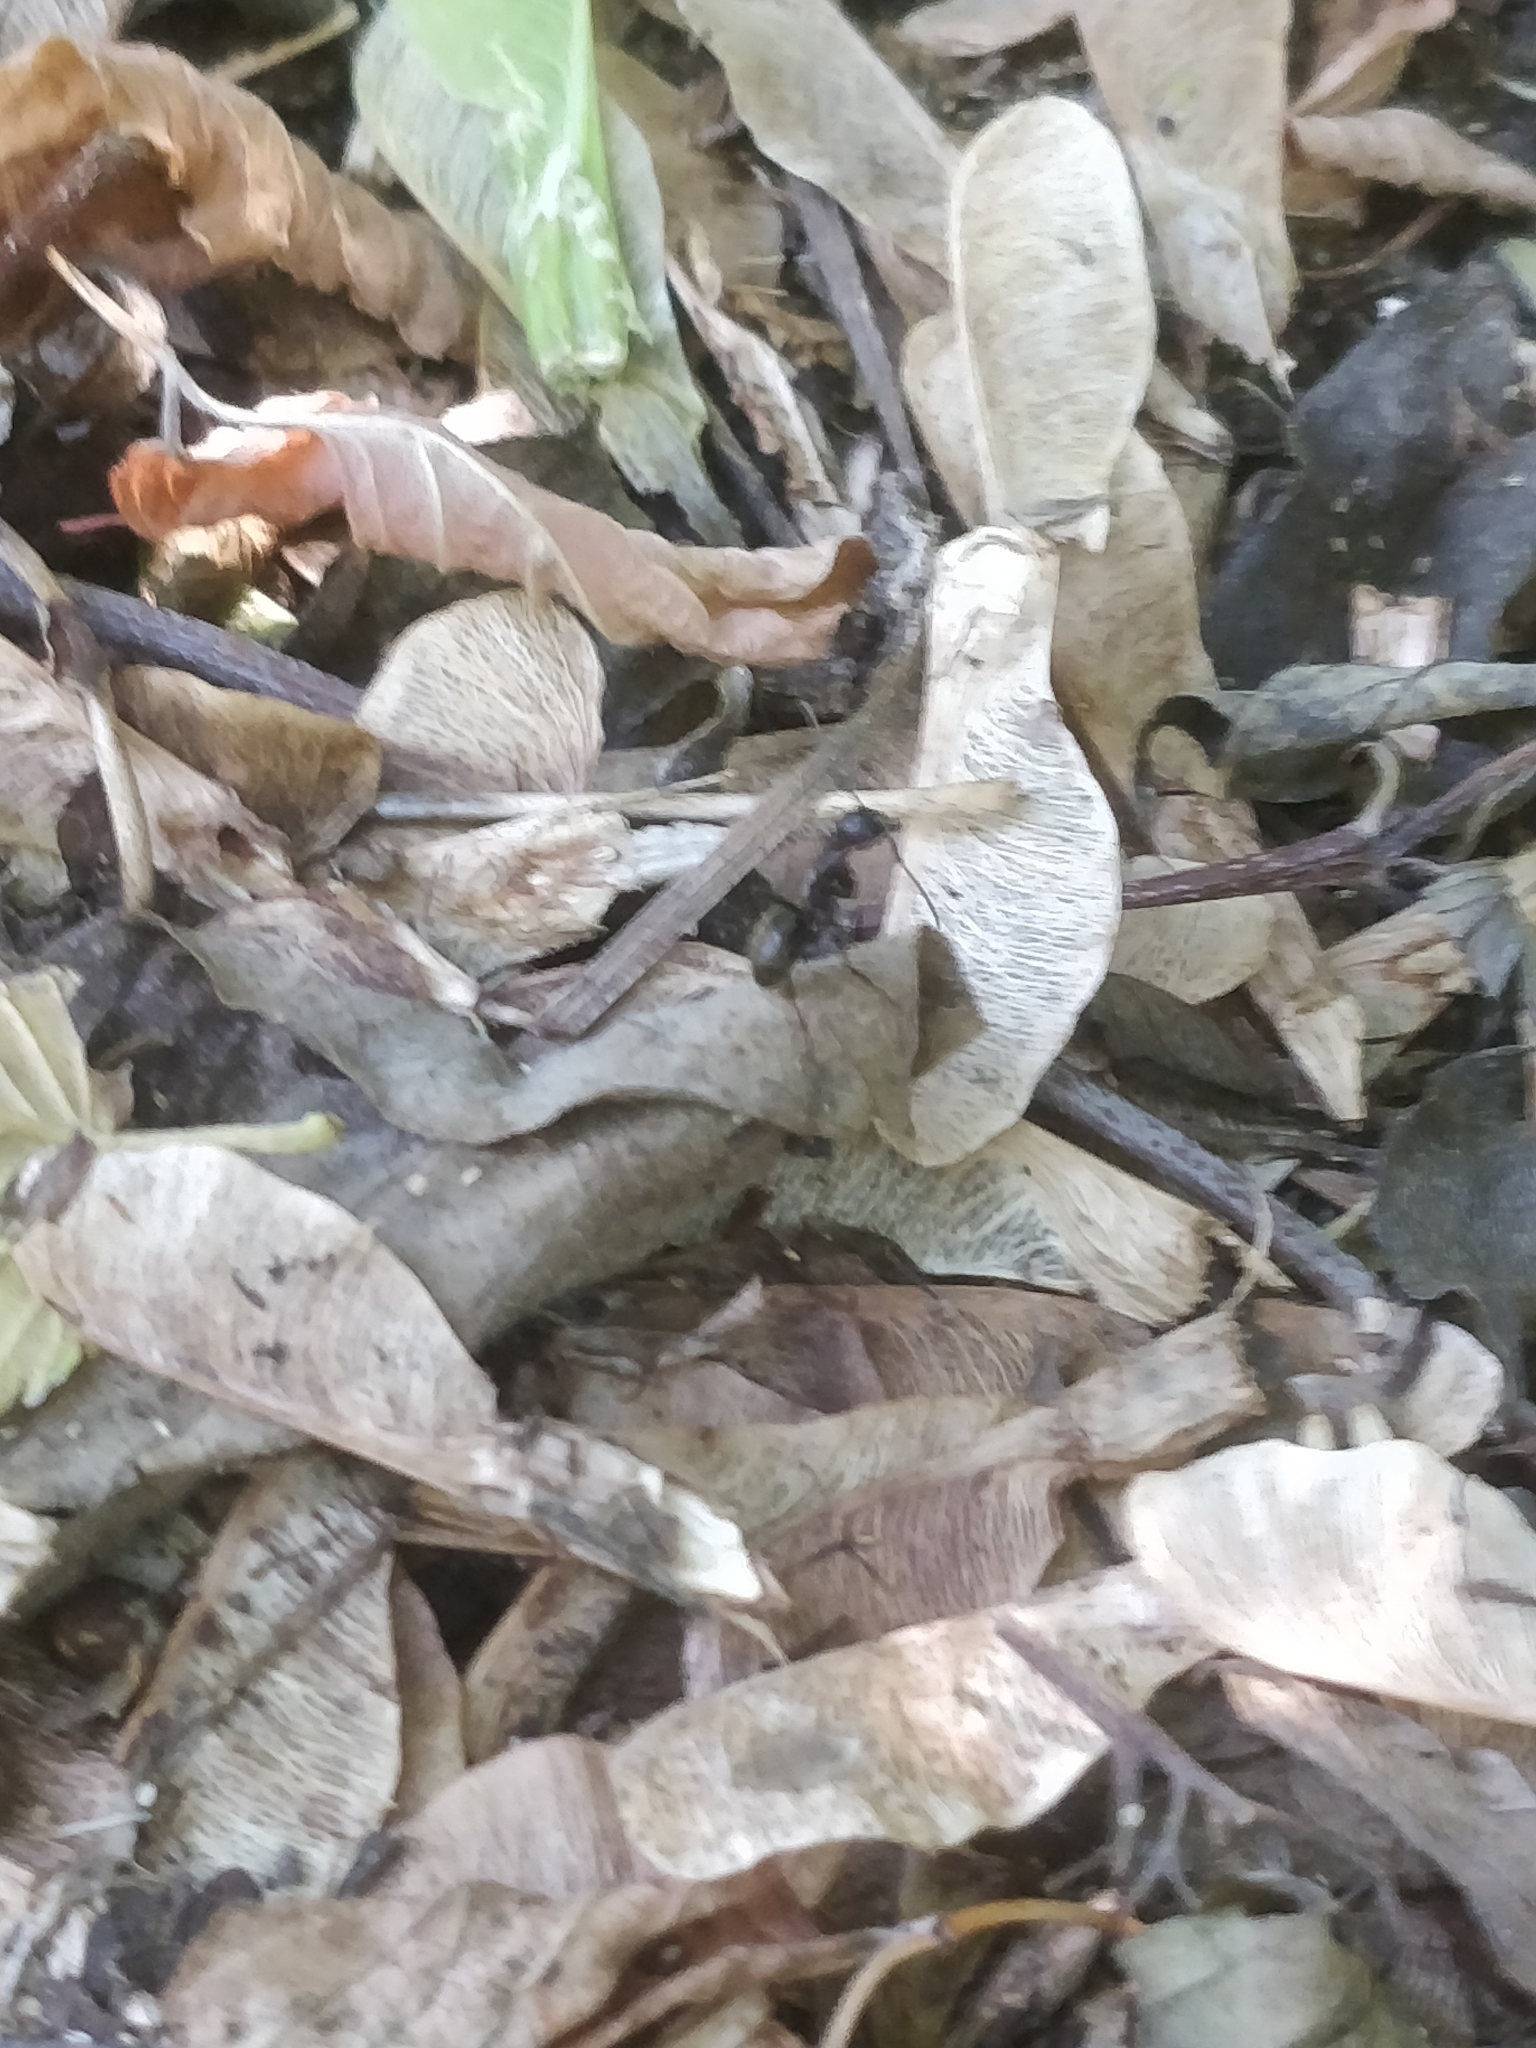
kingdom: Animalia
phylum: Arthropoda
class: Insecta
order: Hymenoptera
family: Formicidae
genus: Camponotus
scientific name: Camponotus pennsylvanicus
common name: Black carpenter ant
